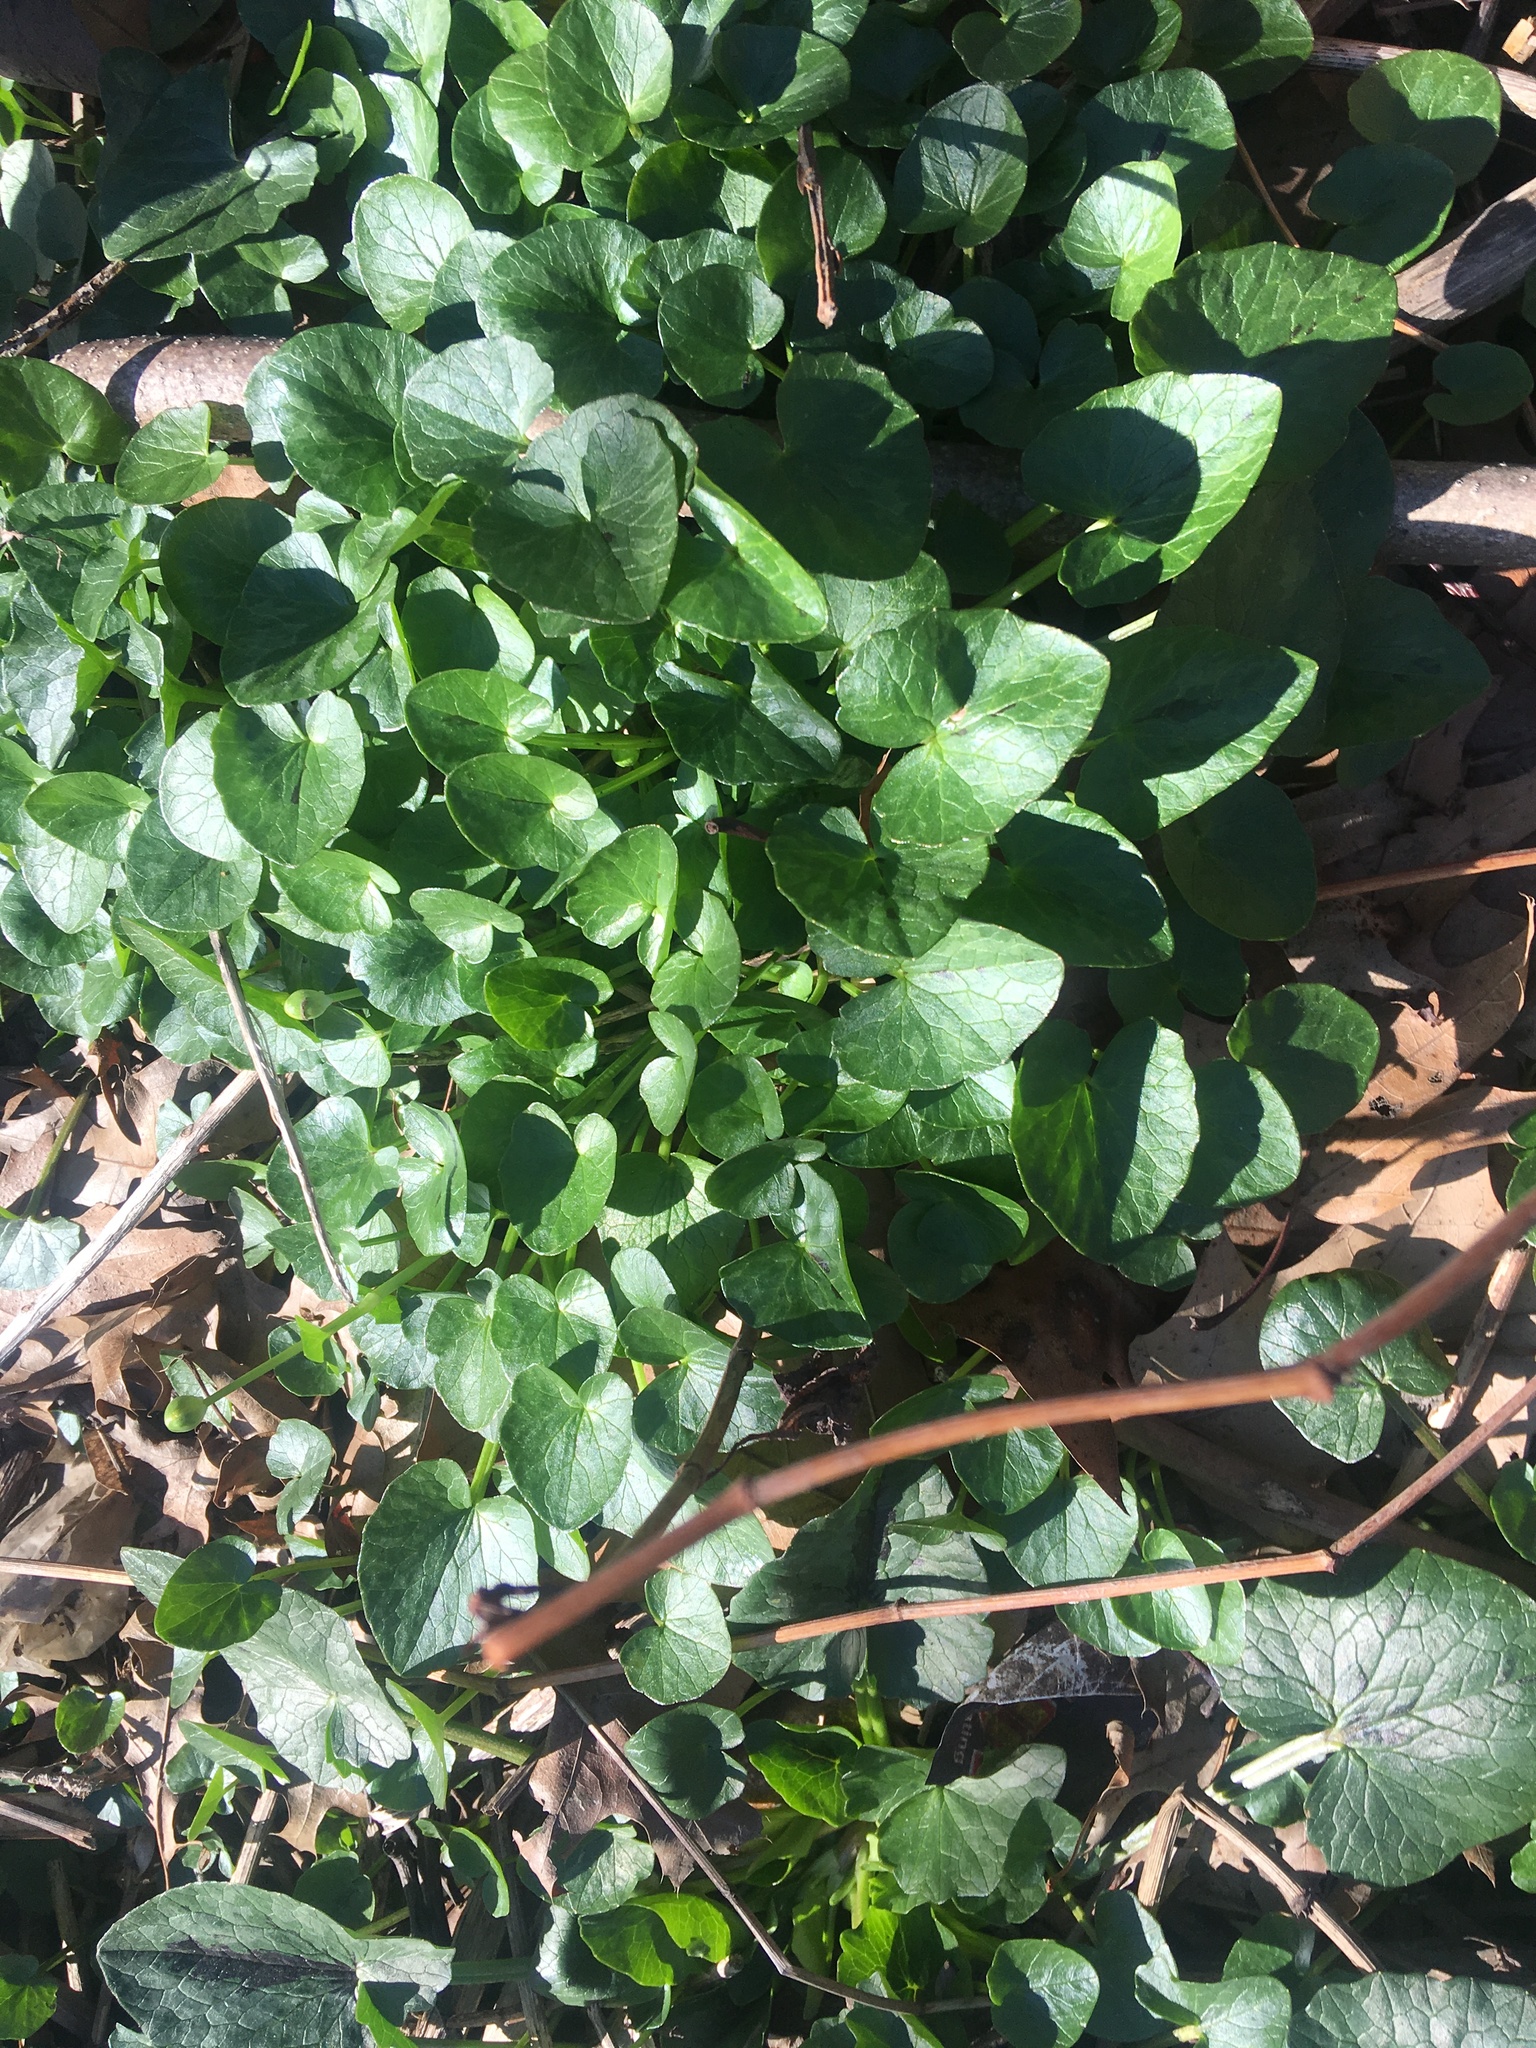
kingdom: Plantae
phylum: Tracheophyta
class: Magnoliopsida
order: Ranunculales
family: Ranunculaceae
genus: Ficaria
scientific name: Ficaria verna
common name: Lesser celandine
